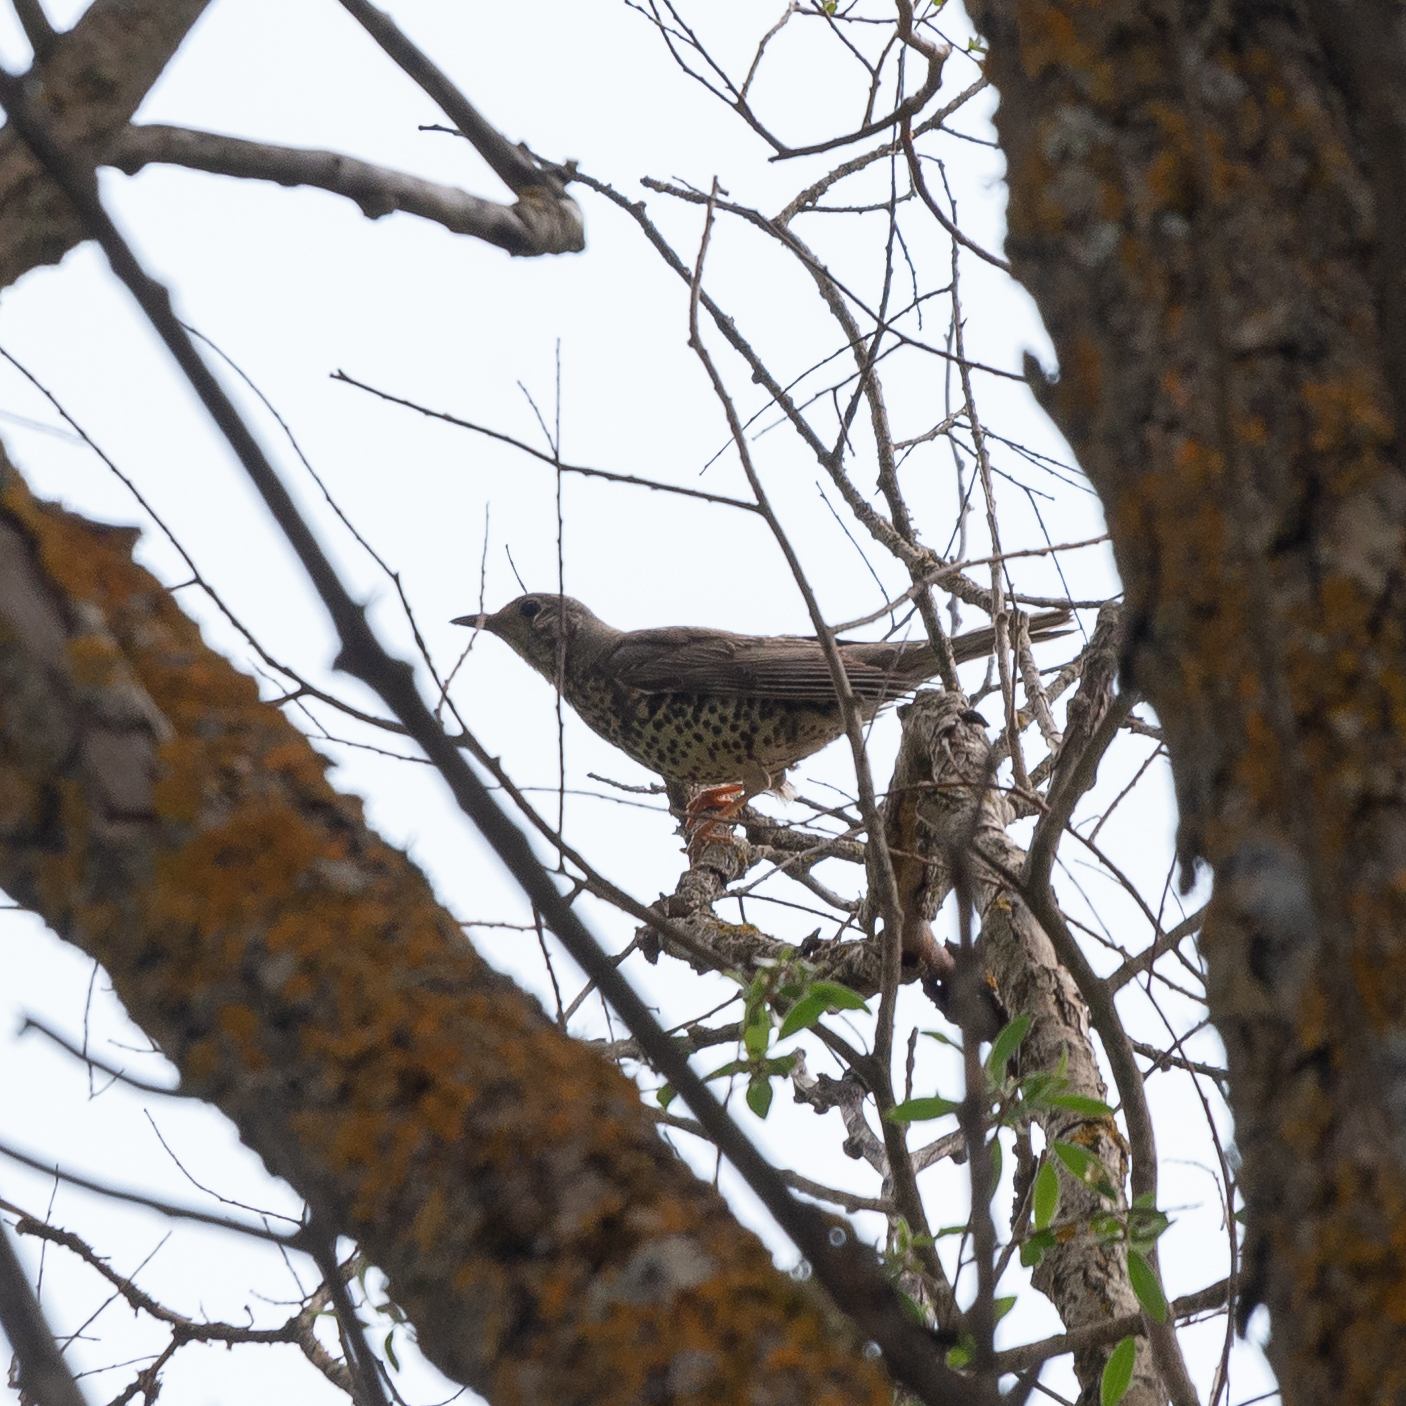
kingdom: Animalia
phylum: Chordata
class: Aves
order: Passeriformes
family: Turdidae
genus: Turdus
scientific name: Turdus viscivorus
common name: Mistle thrush
